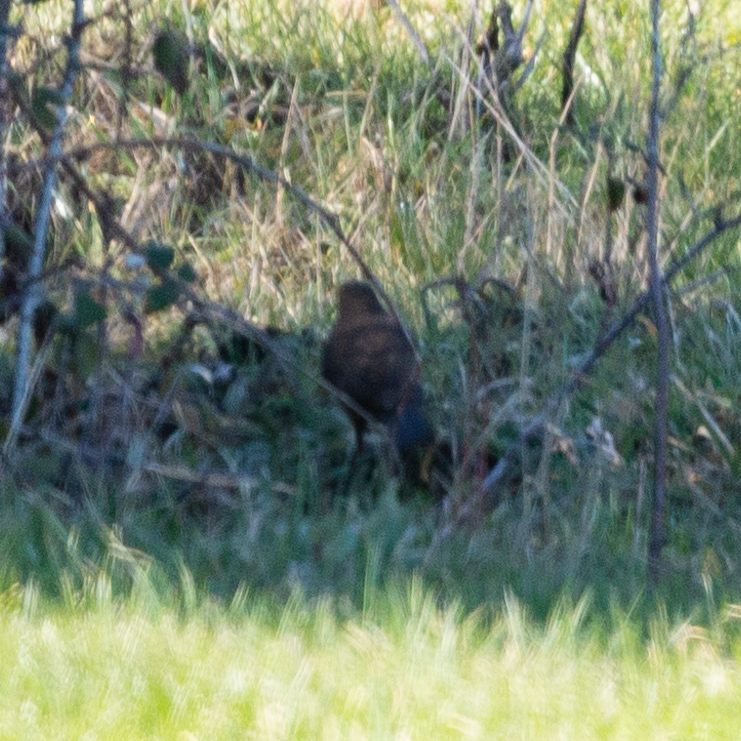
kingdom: Animalia
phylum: Chordata
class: Aves
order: Passeriformes
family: Turdidae
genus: Turdus
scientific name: Turdus merula
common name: Common blackbird
